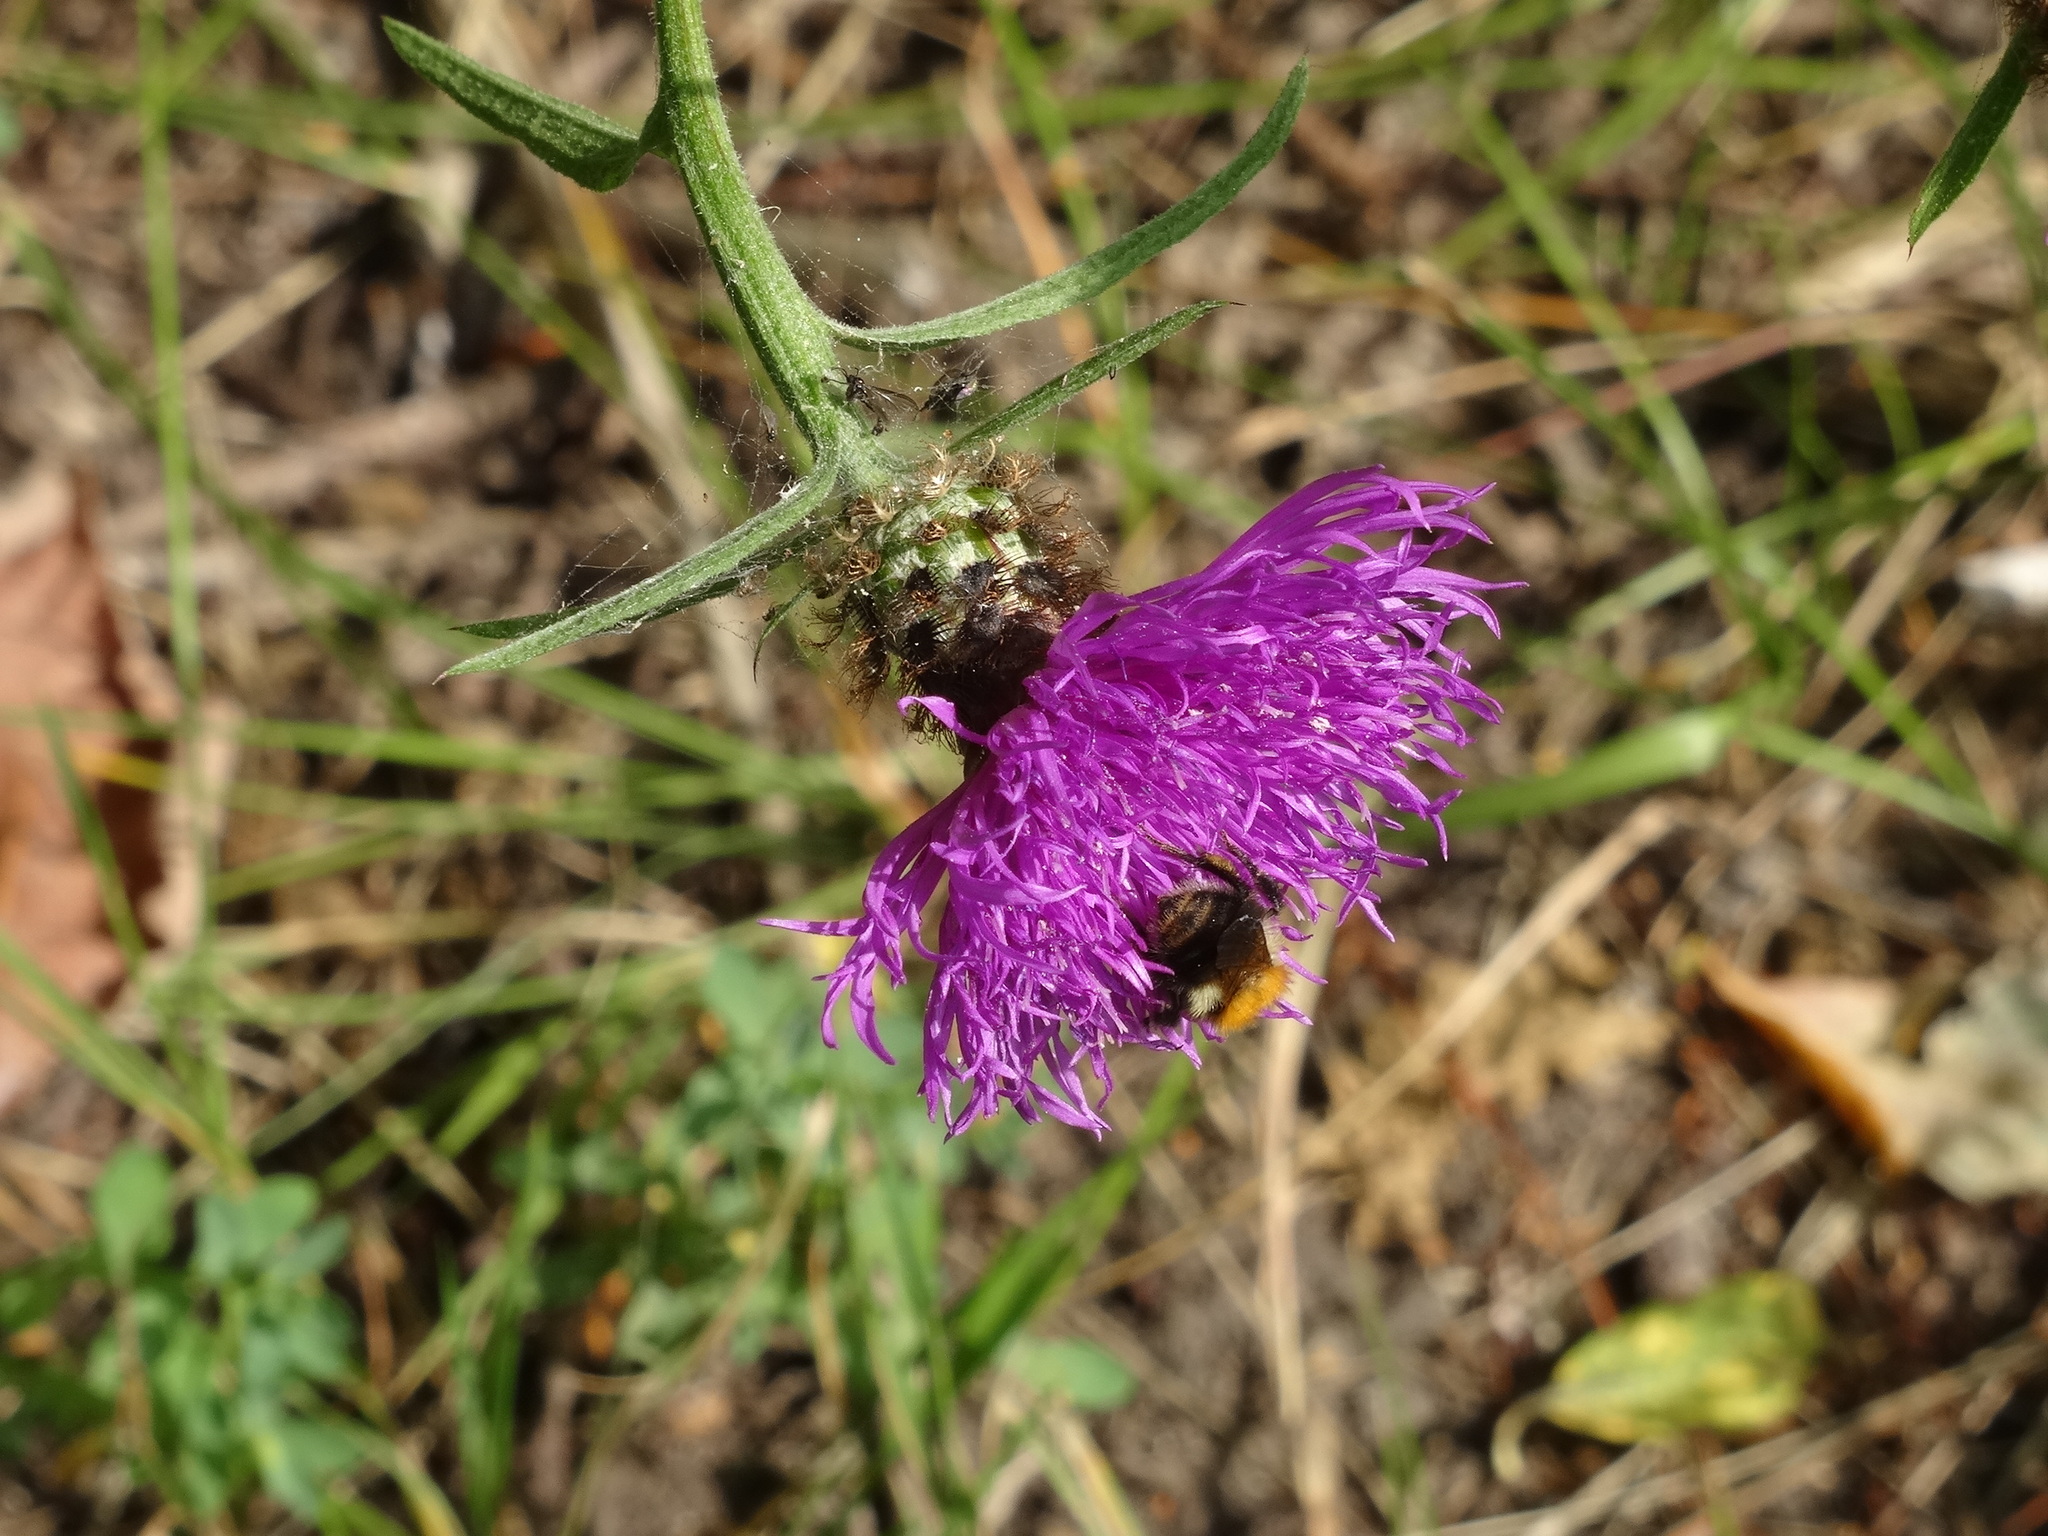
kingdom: Plantae
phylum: Tracheophyta
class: Magnoliopsida
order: Asterales
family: Asteraceae
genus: Centaurea
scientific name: Centaurea nigra
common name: Lesser knapweed
